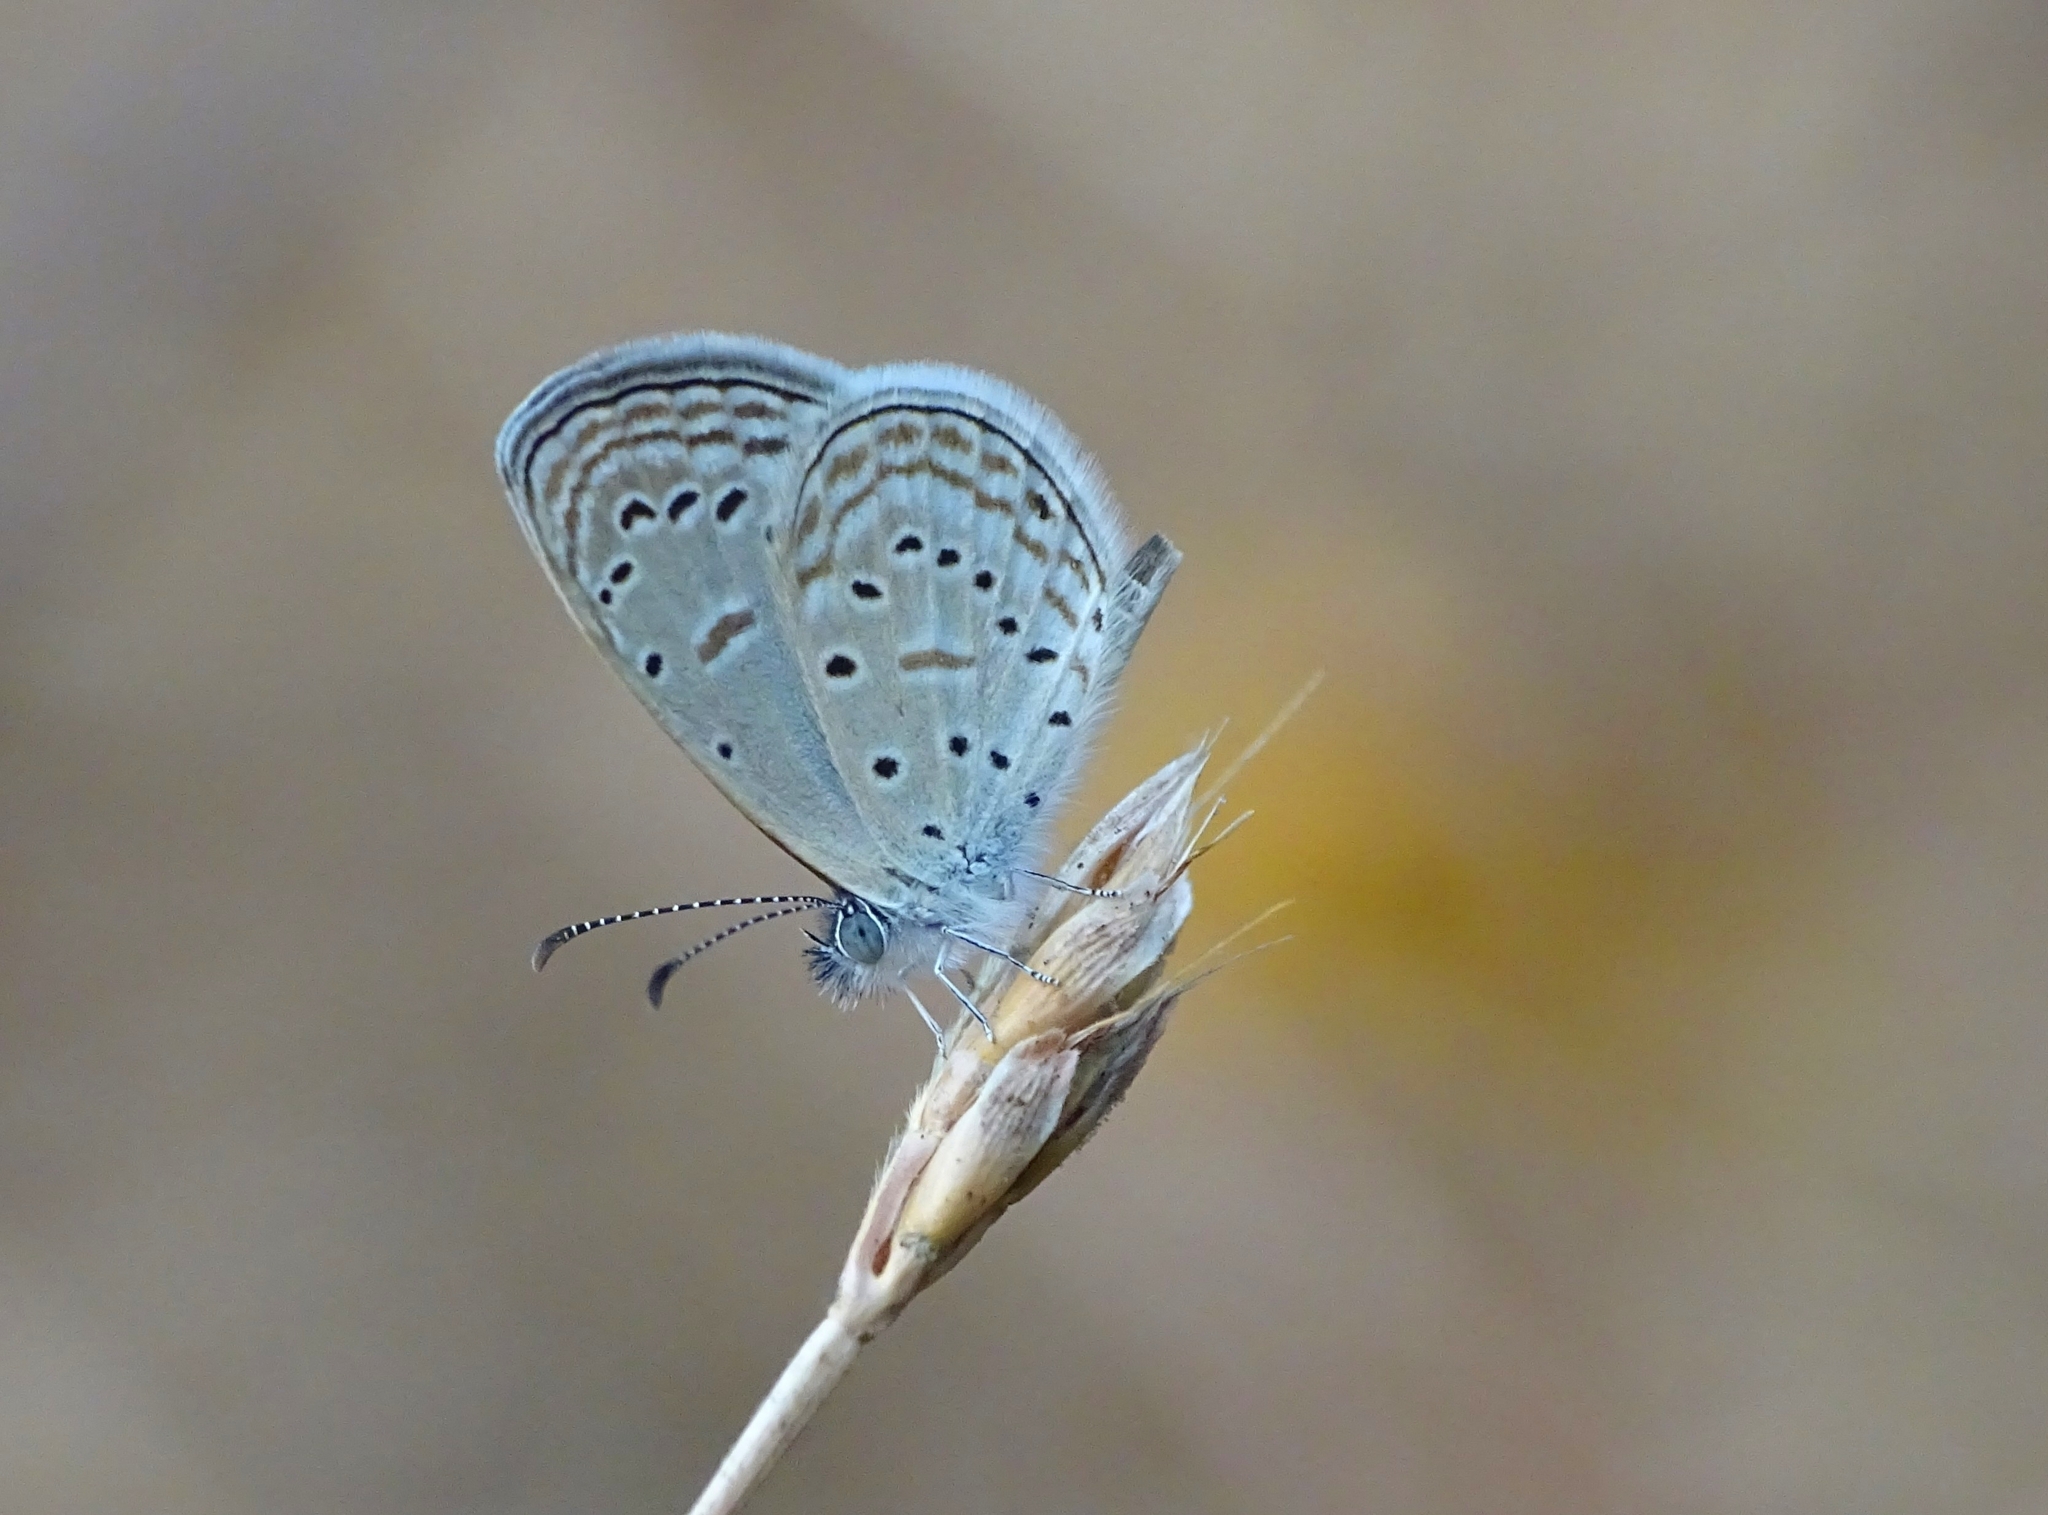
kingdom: Animalia
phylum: Arthropoda
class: Insecta
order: Lepidoptera
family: Lycaenidae
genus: Zizula
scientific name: Zizula hylax
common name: Gaika blue
